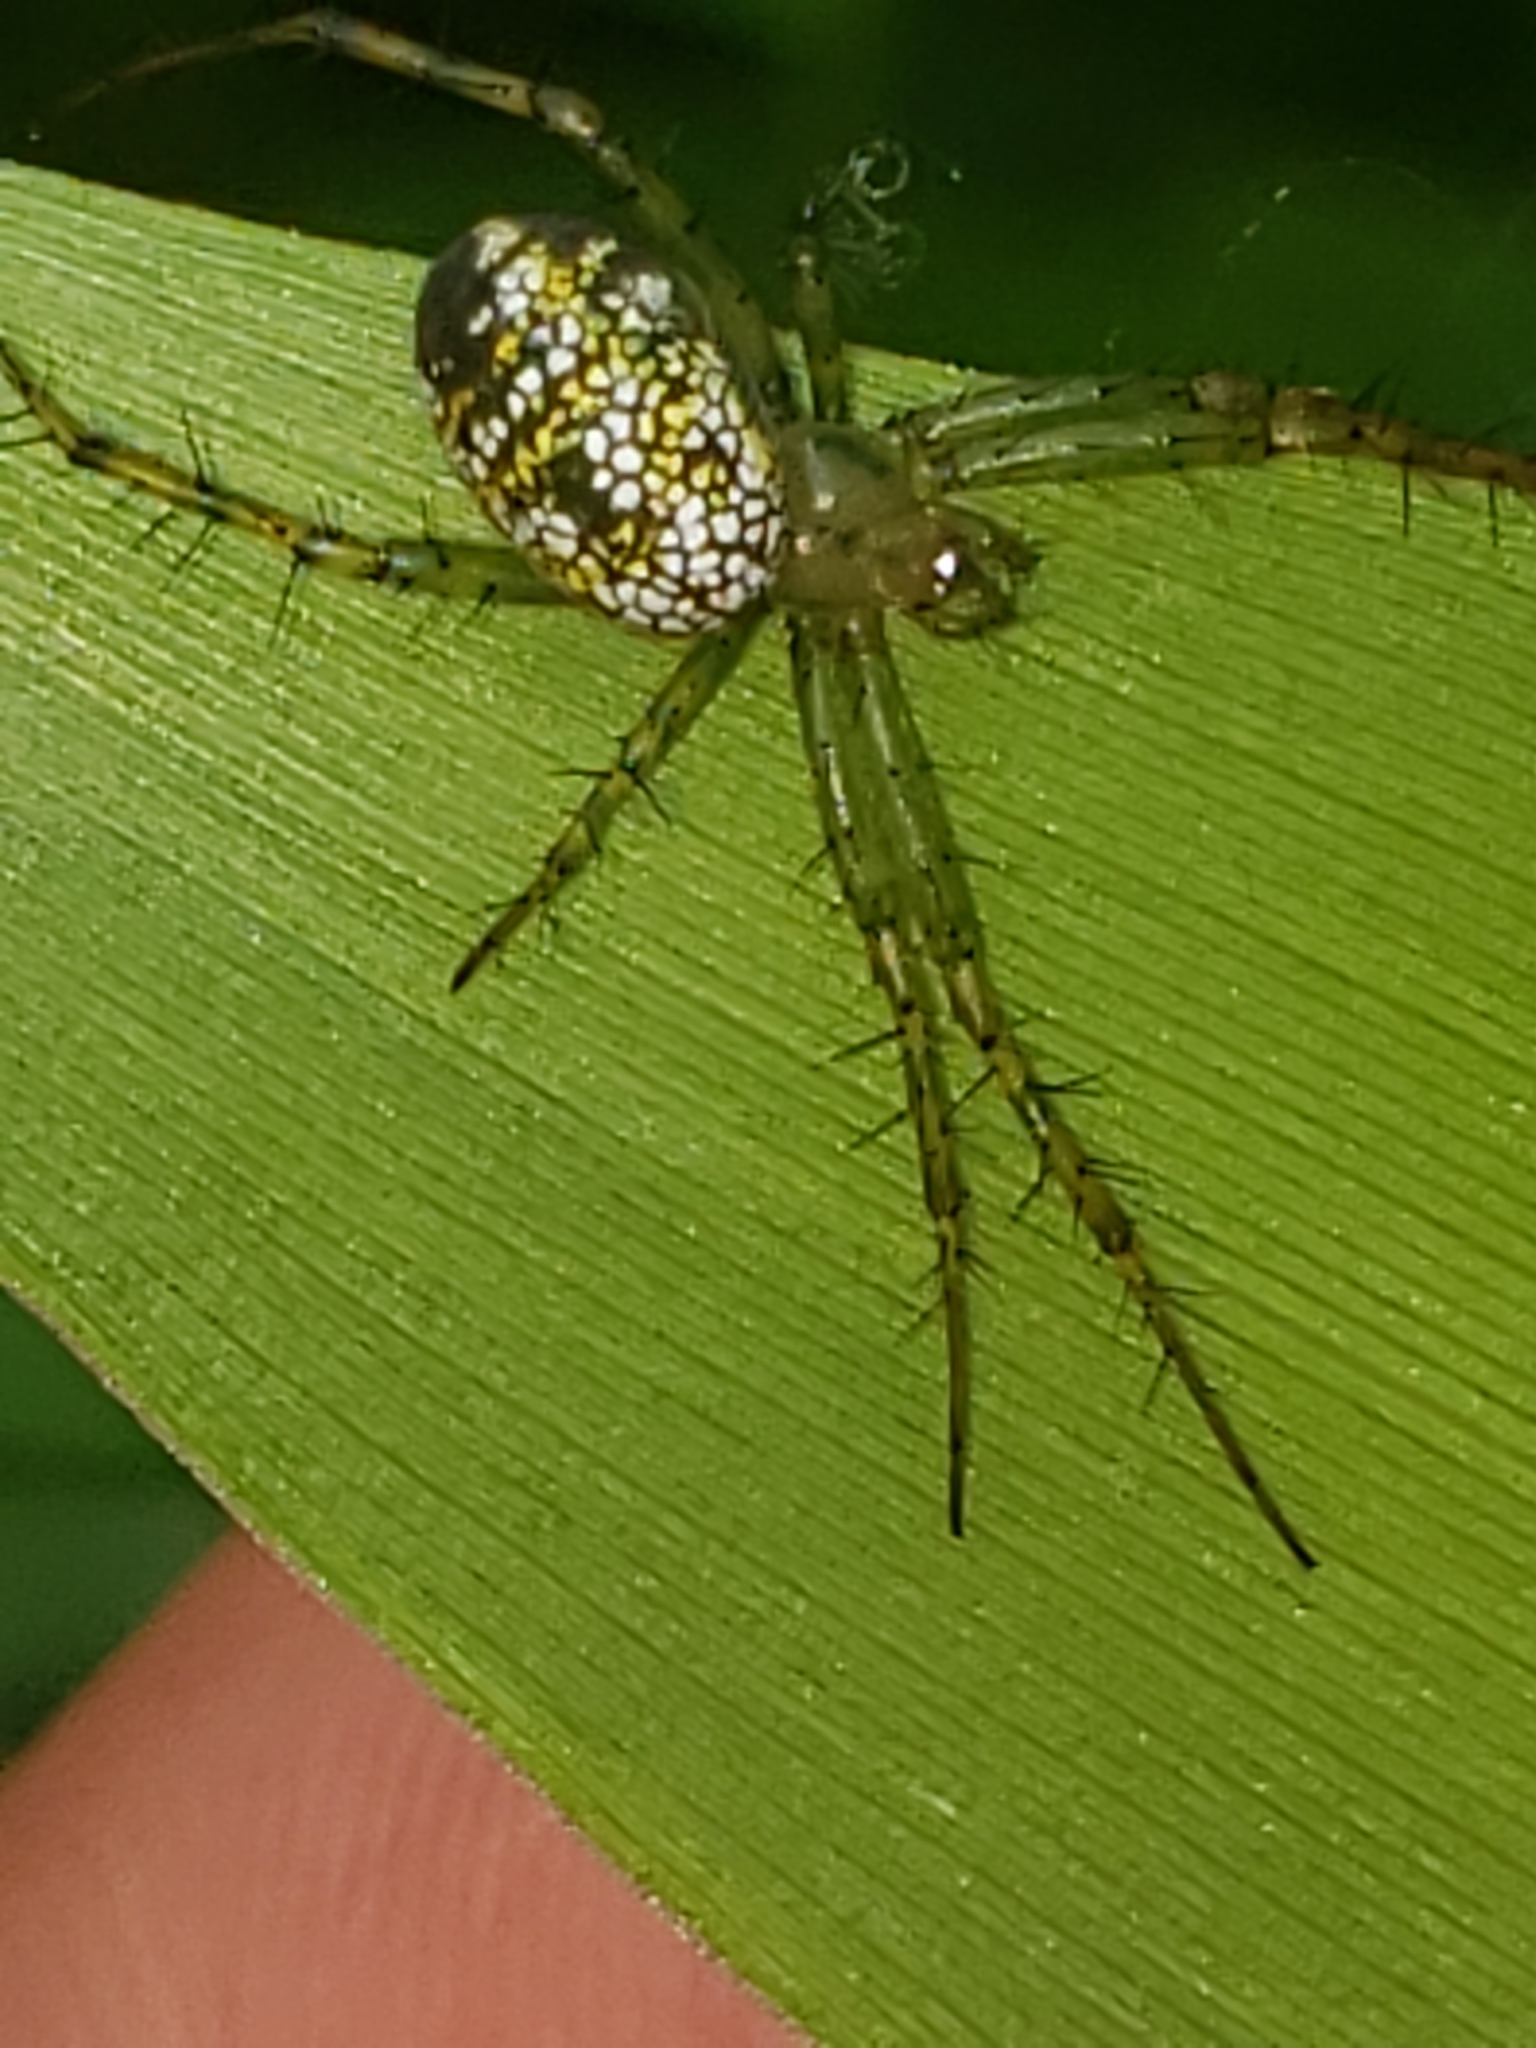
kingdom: Animalia
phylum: Arthropoda
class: Arachnida
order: Araneae
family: Araneidae
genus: Mangora
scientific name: Mangora spiculata
